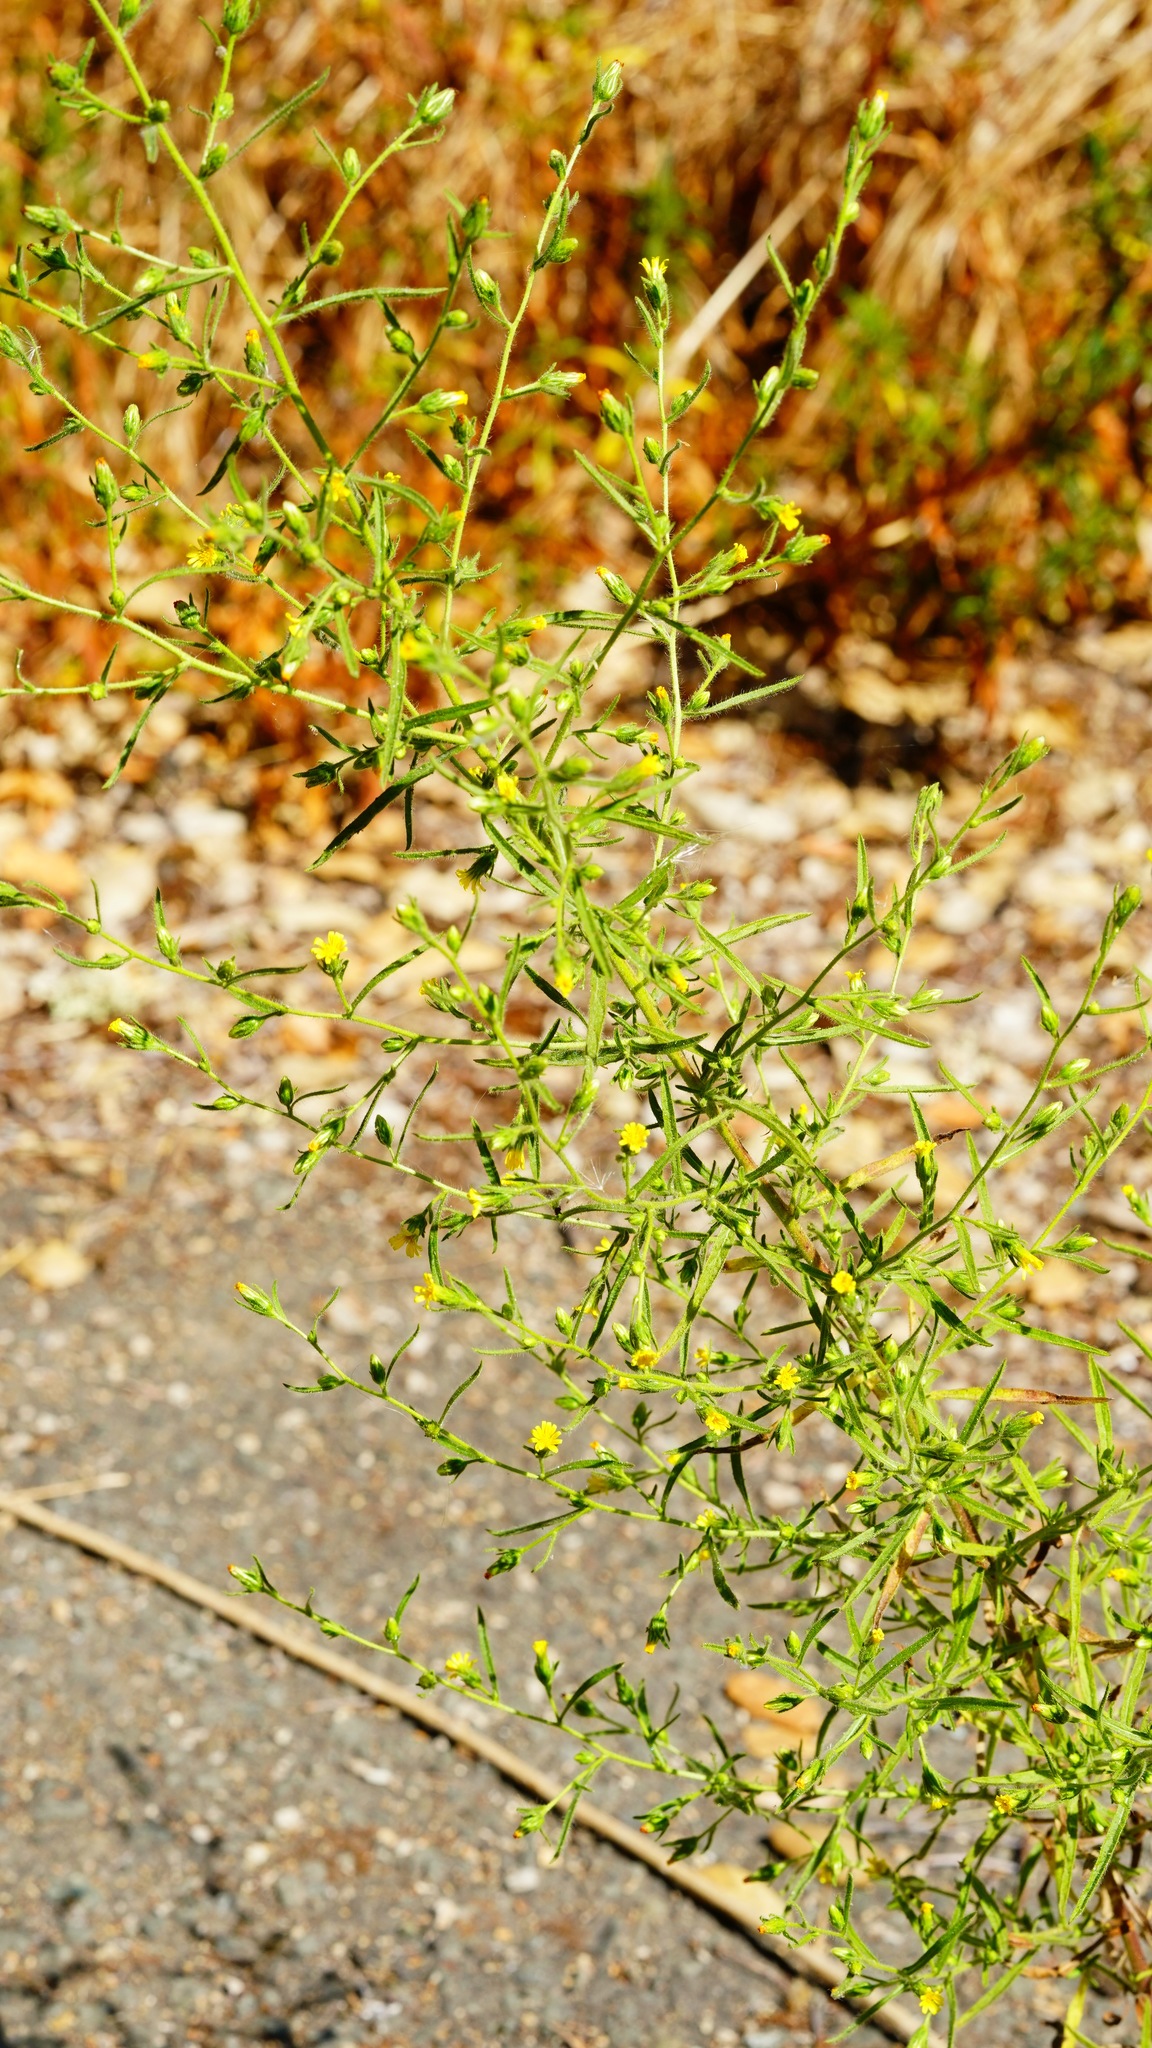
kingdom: Plantae
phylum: Tracheophyta
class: Magnoliopsida
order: Asterales
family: Asteraceae
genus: Dittrichia
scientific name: Dittrichia graveolens
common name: Stinking fleabane
